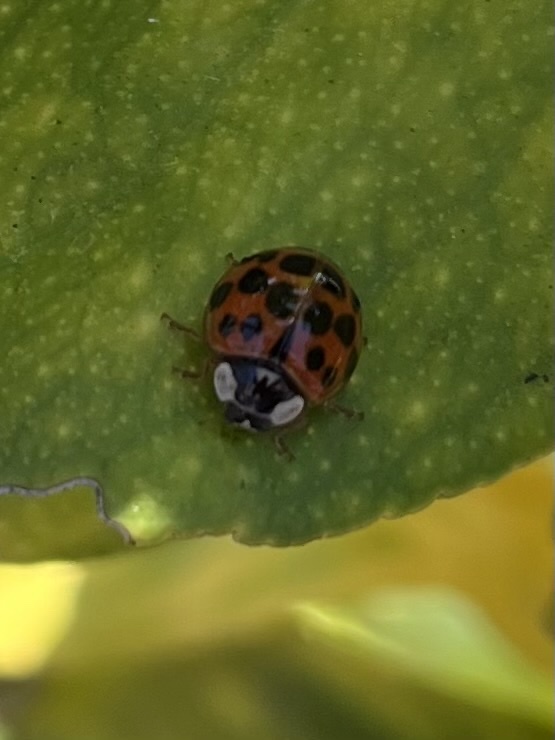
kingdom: Animalia
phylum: Arthropoda
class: Insecta
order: Coleoptera
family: Coccinellidae
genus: Harmonia
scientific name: Harmonia axyridis
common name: Harlequin ladybird
